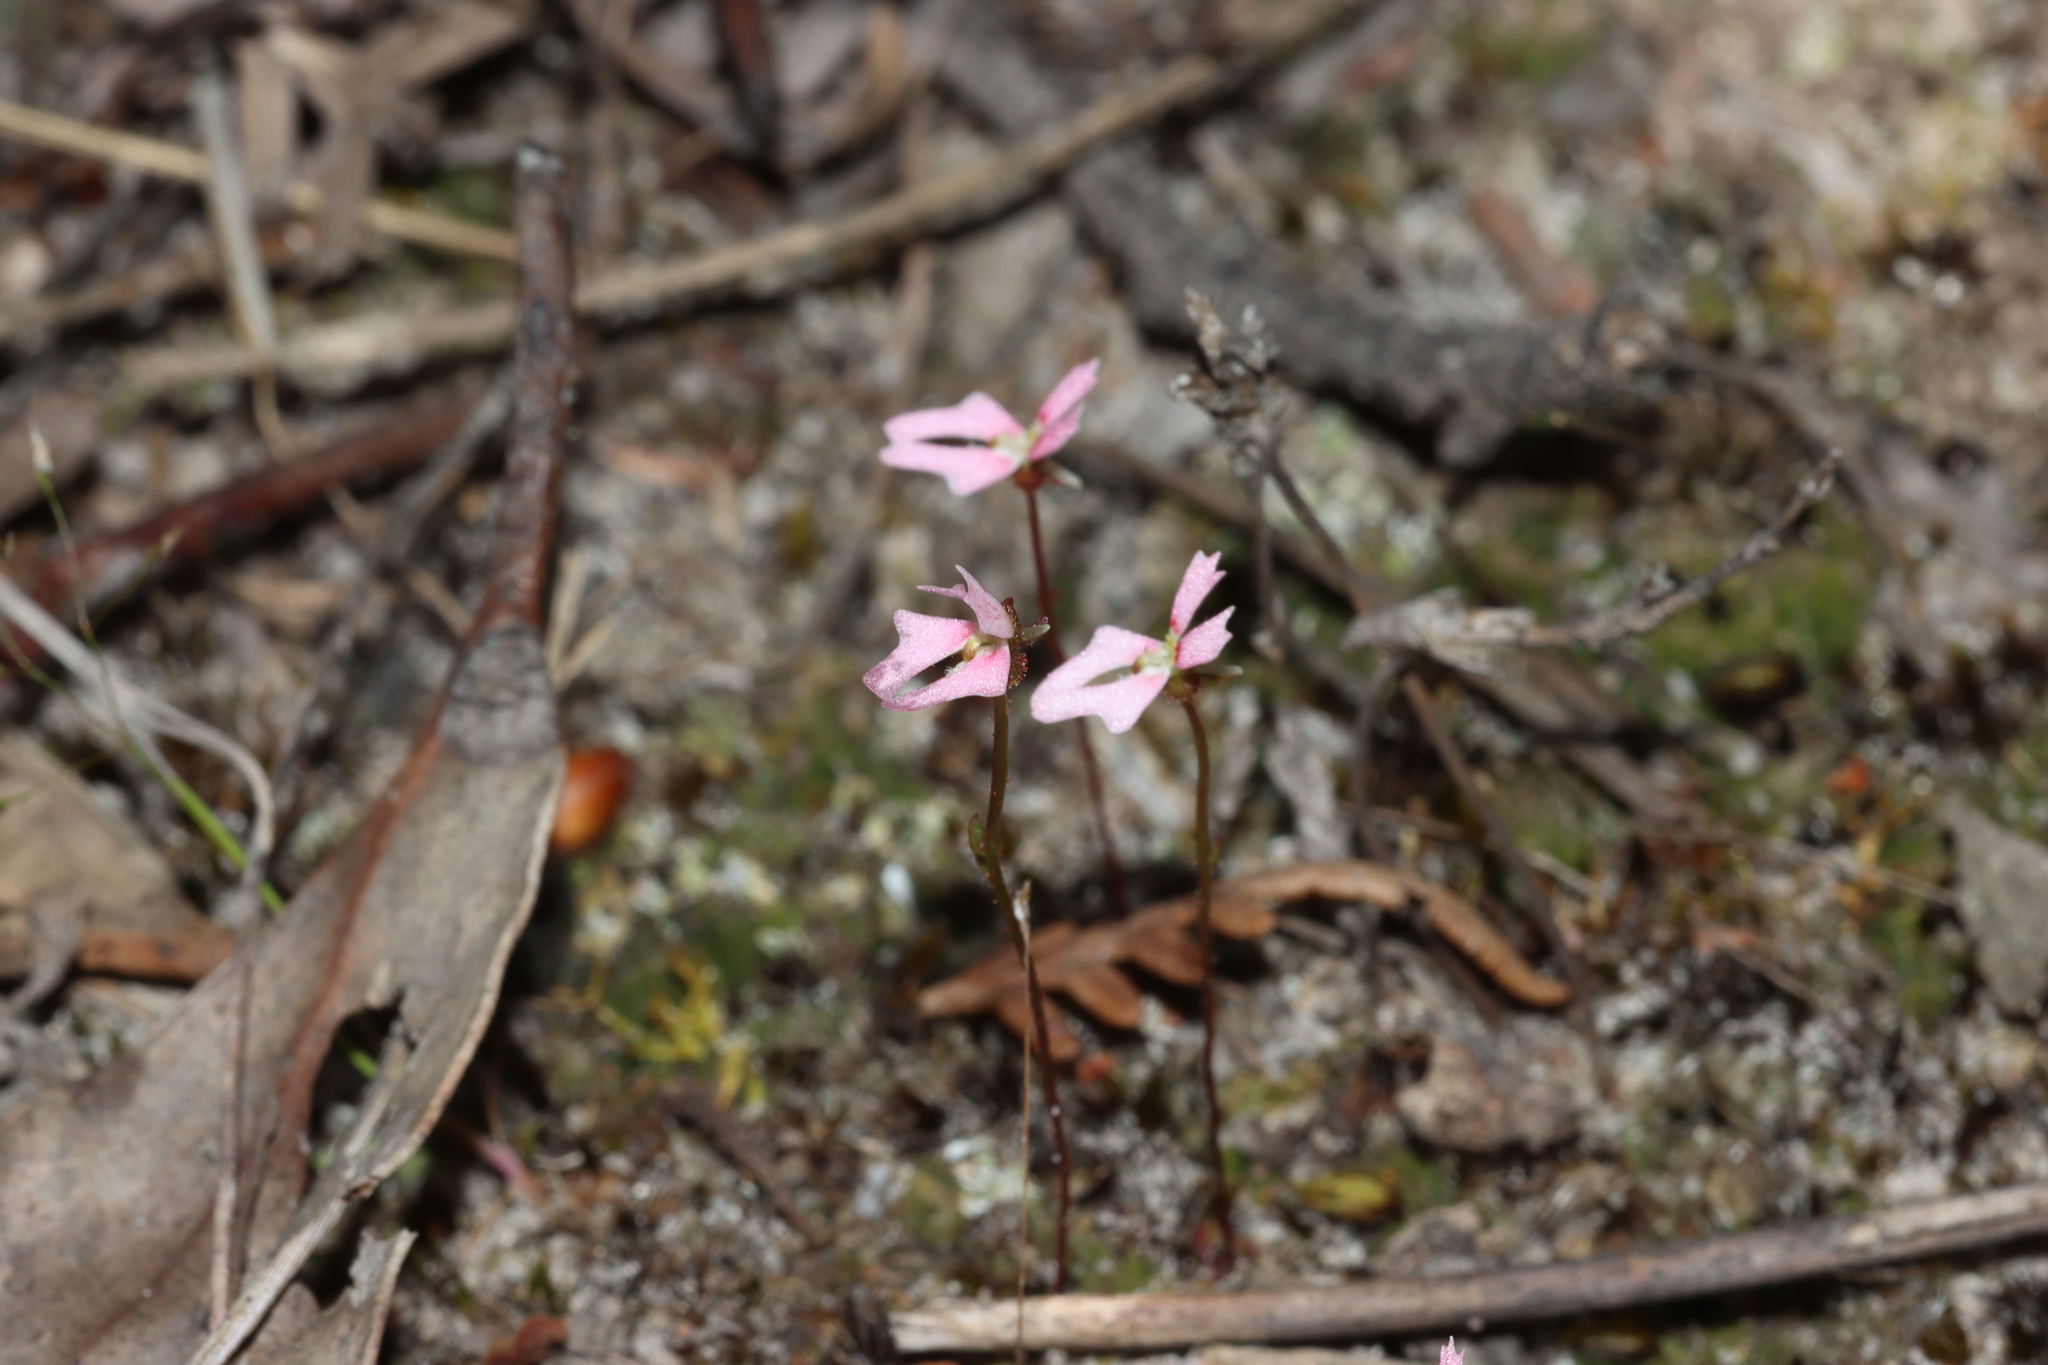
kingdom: Plantae
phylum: Tracheophyta
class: Magnoliopsida
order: Asterales
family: Stylidiaceae
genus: Stylidium
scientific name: Stylidium calcaratum
